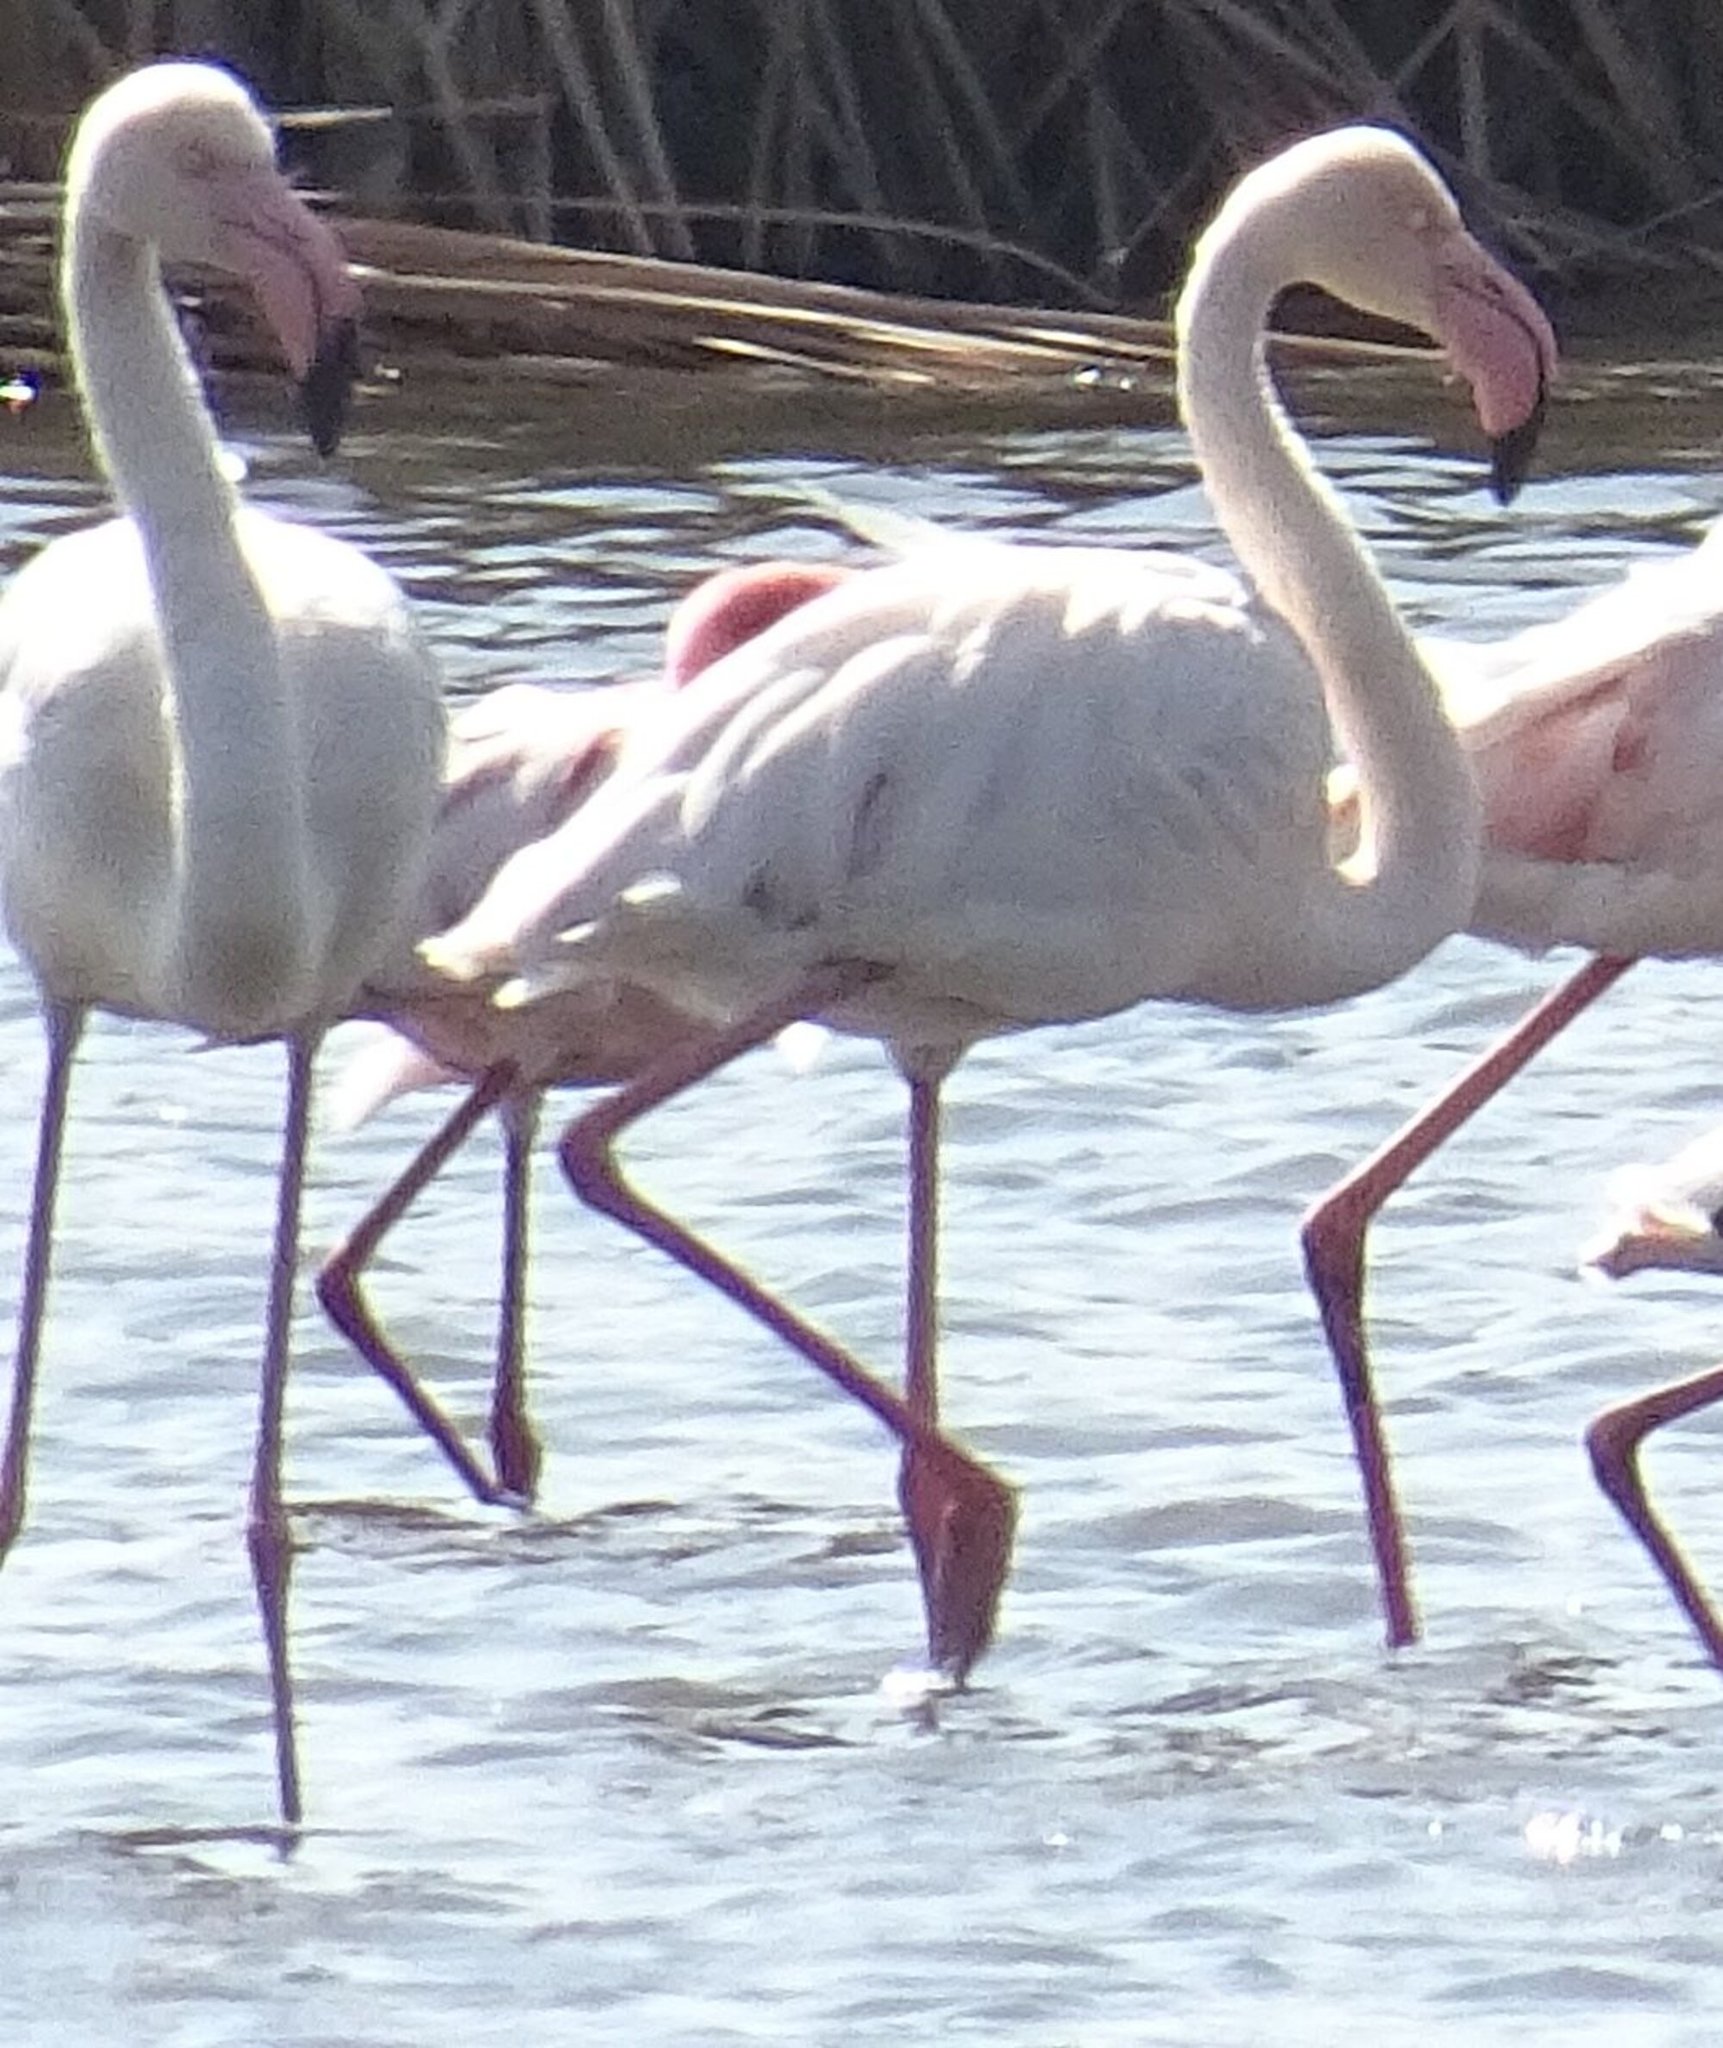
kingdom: Animalia
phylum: Chordata
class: Aves
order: Phoenicopteriformes
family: Phoenicopteridae
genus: Phoenicopterus
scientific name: Phoenicopterus roseus
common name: Greater flamingo
